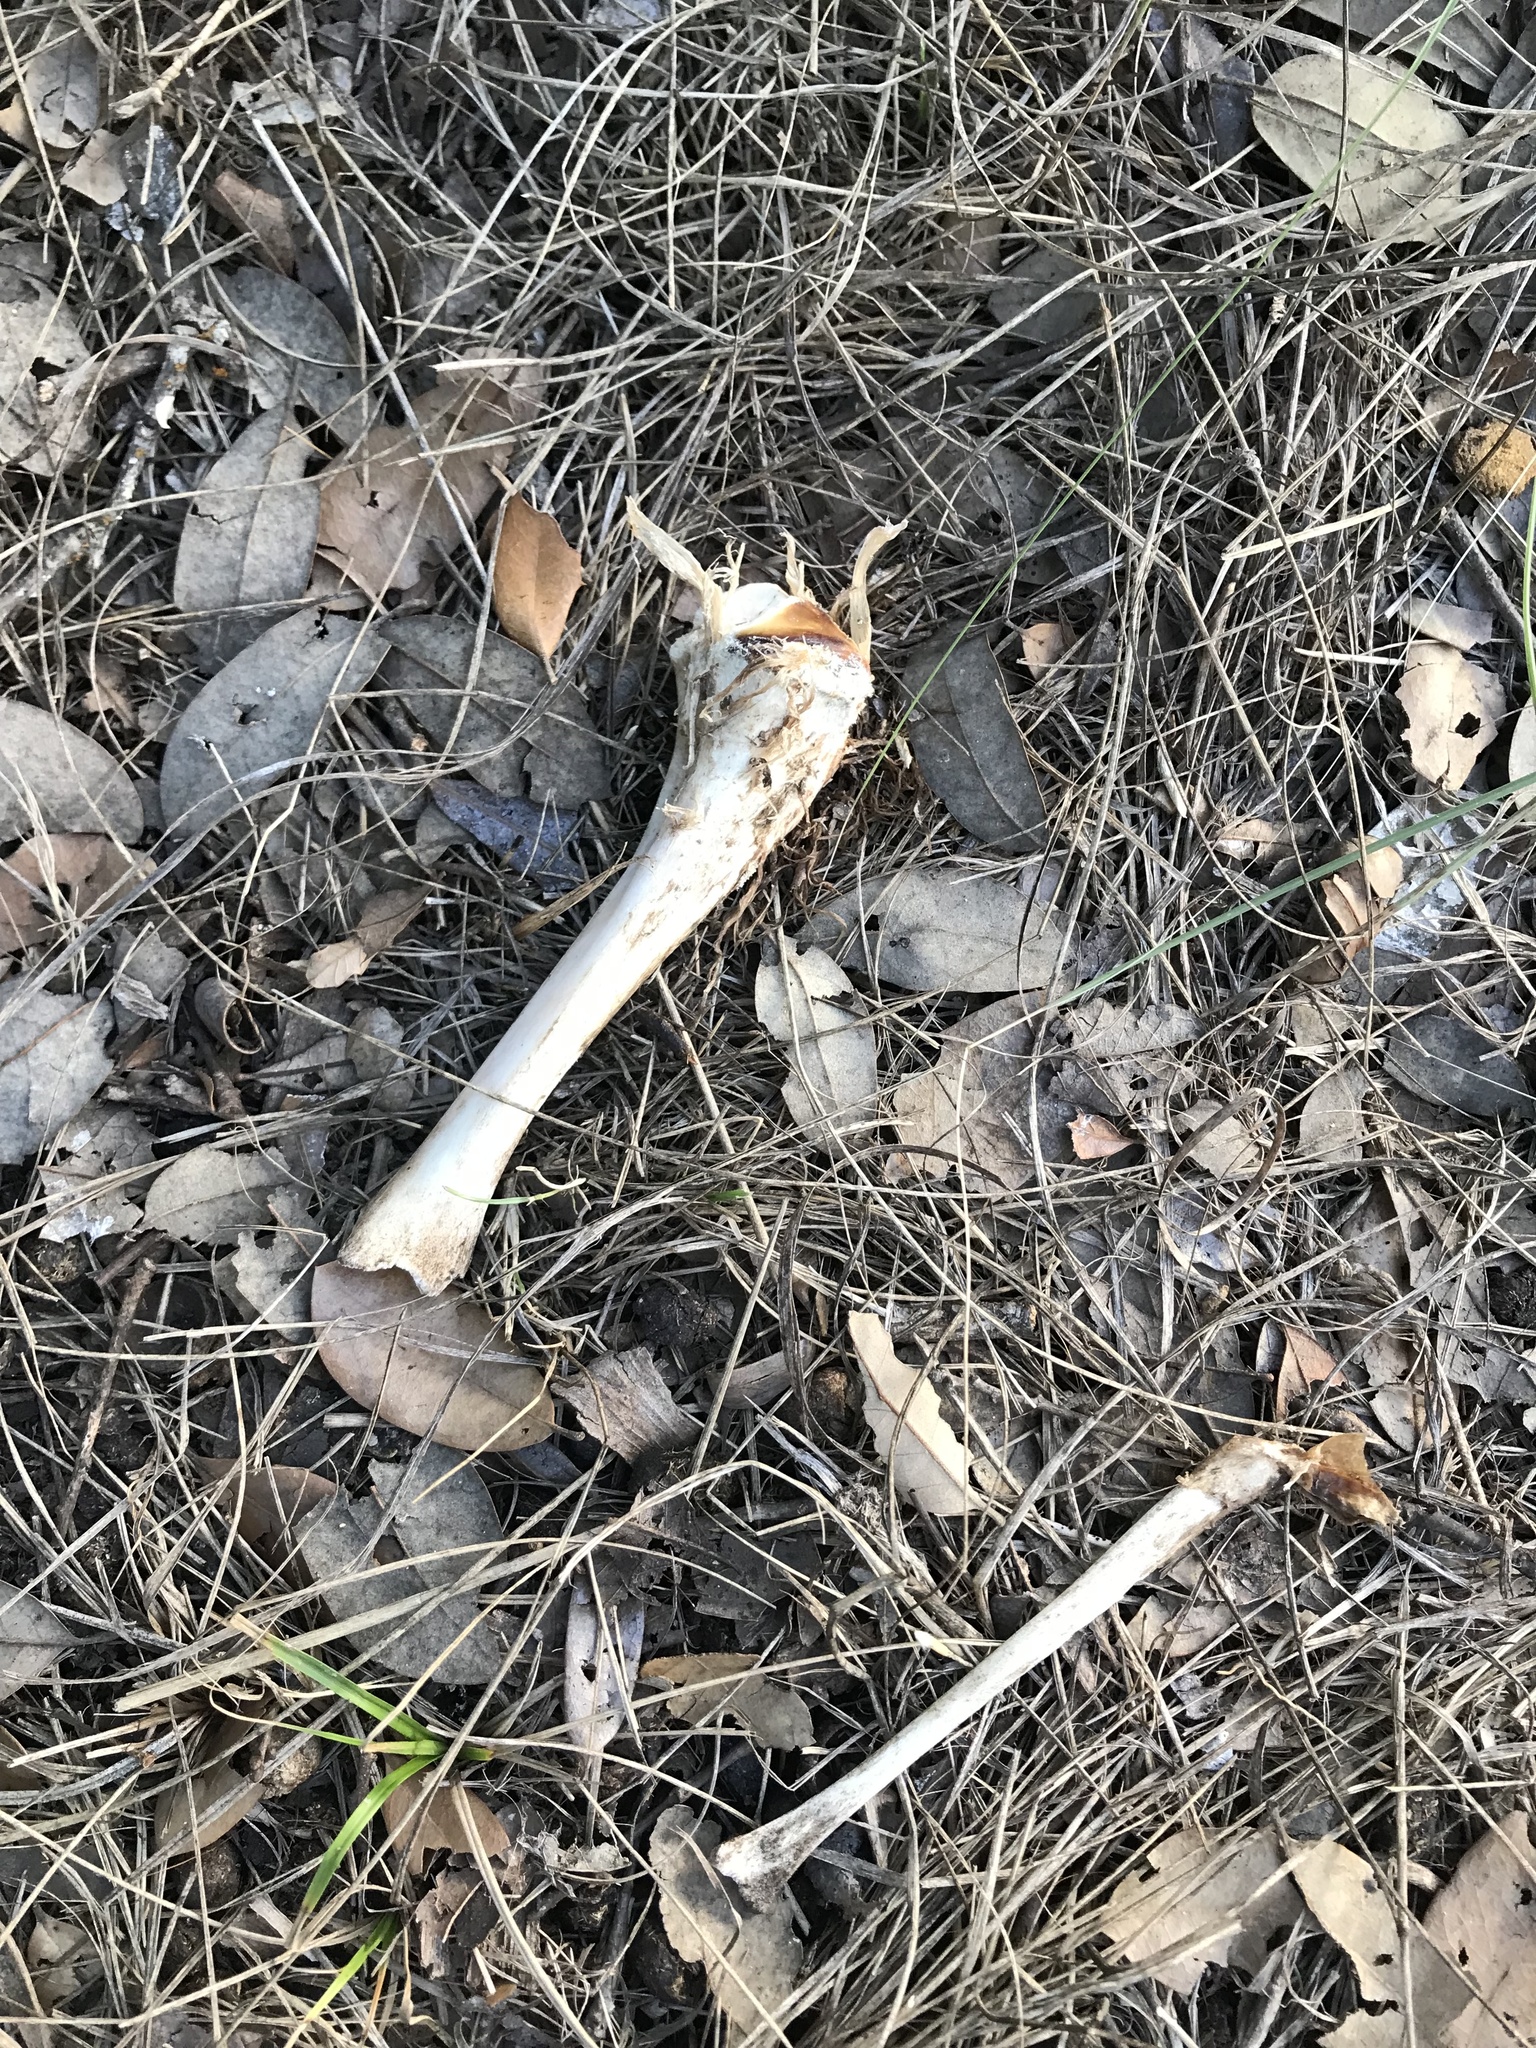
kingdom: Animalia
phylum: Chordata
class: Mammalia
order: Artiodactyla
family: Suidae
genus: Sus
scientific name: Sus scrofa
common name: Wild boar
